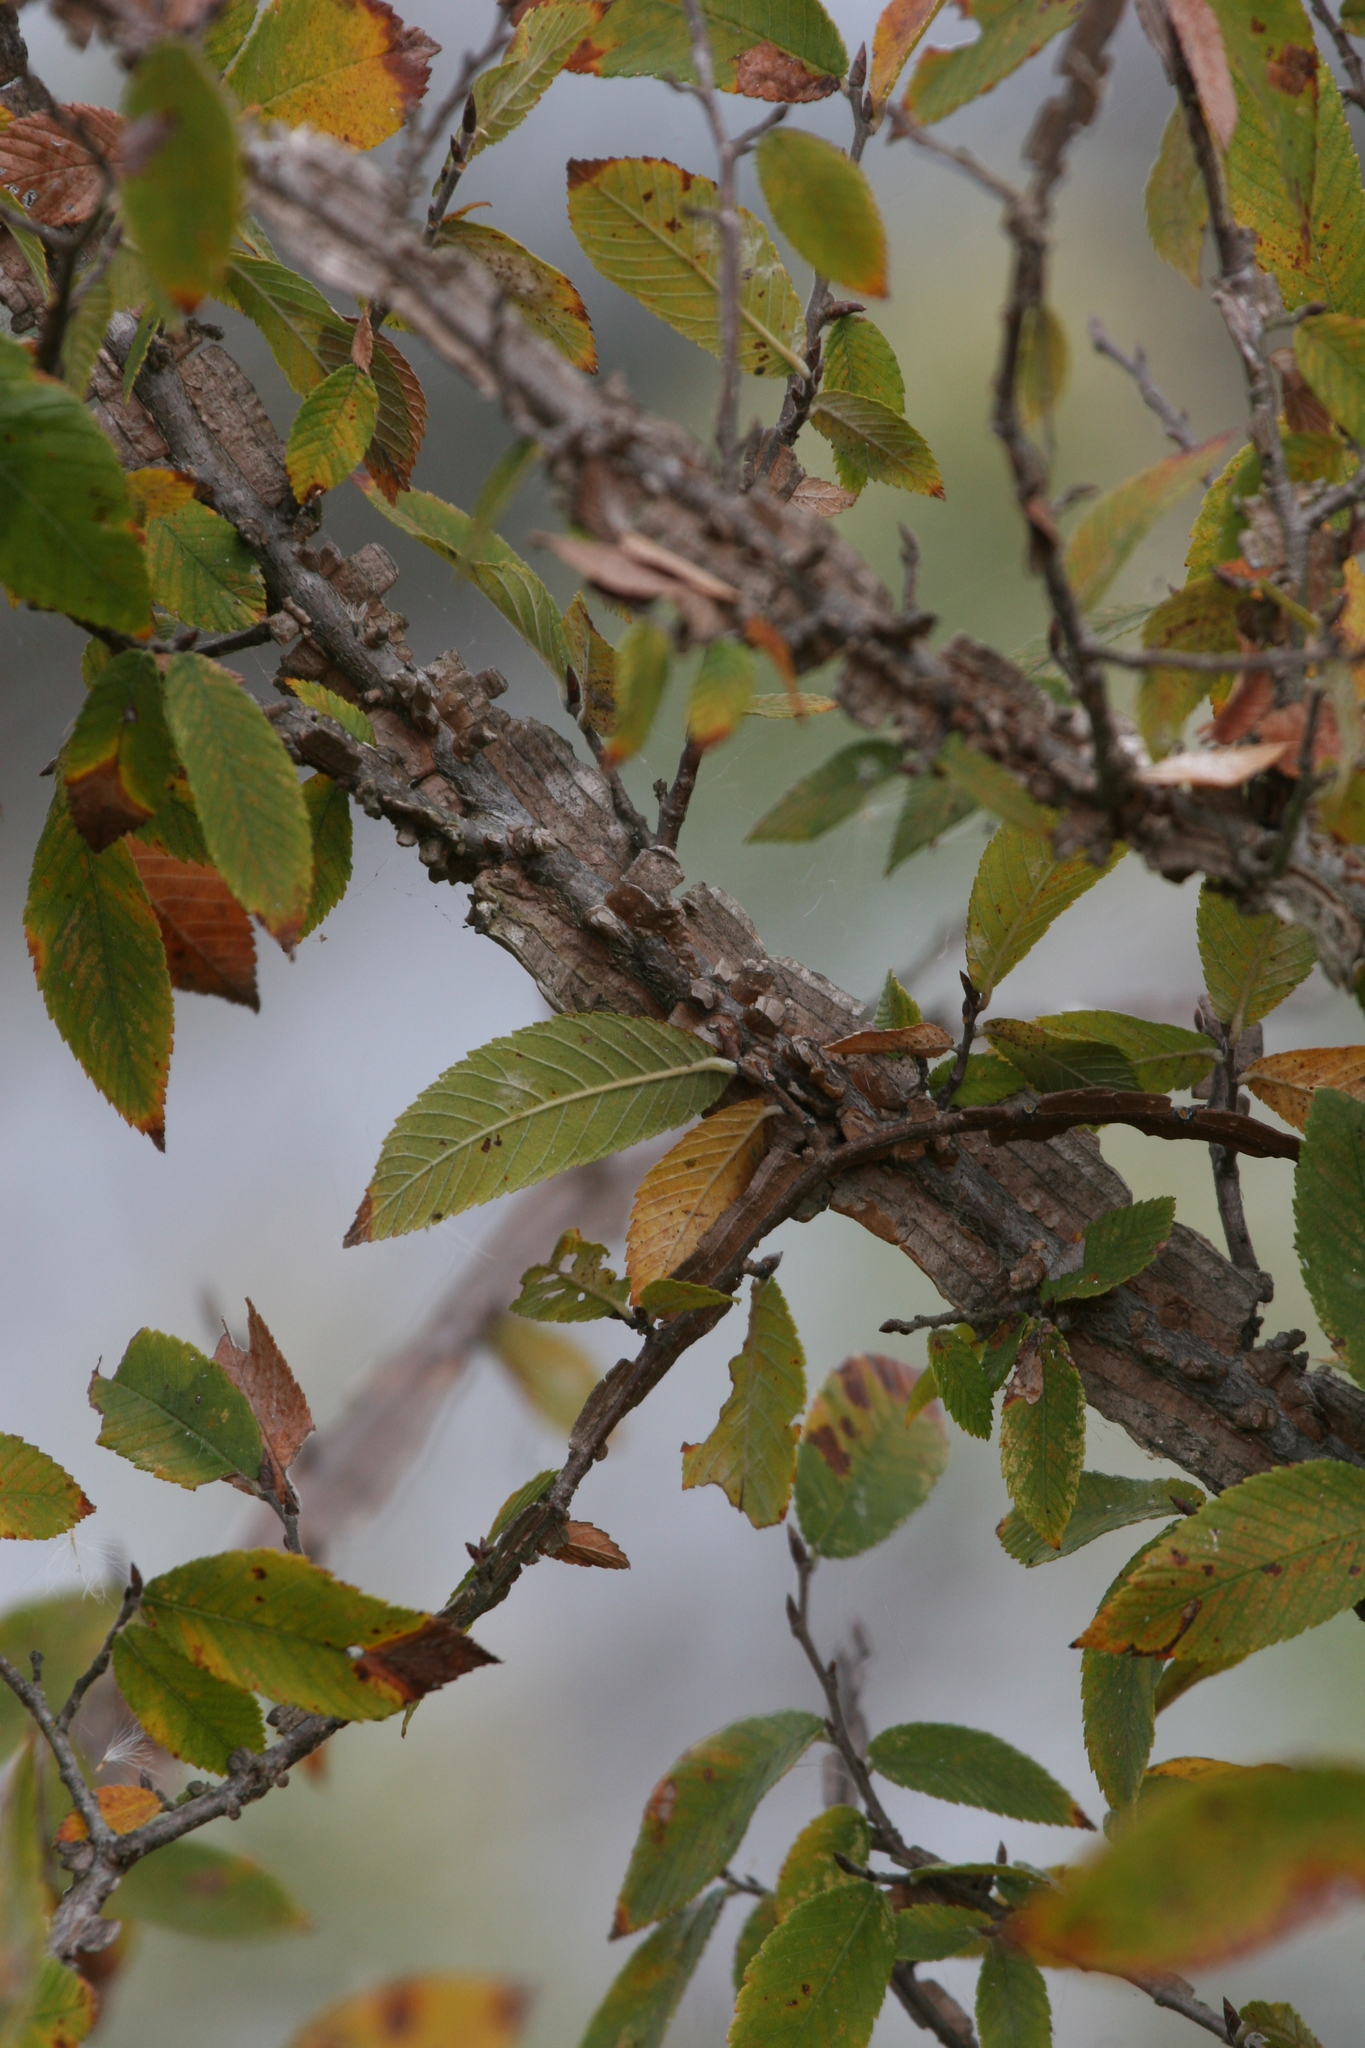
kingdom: Plantae
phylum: Tracheophyta
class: Magnoliopsida
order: Rosales
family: Ulmaceae
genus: Ulmus
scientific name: Ulmus alata
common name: Winged elm
